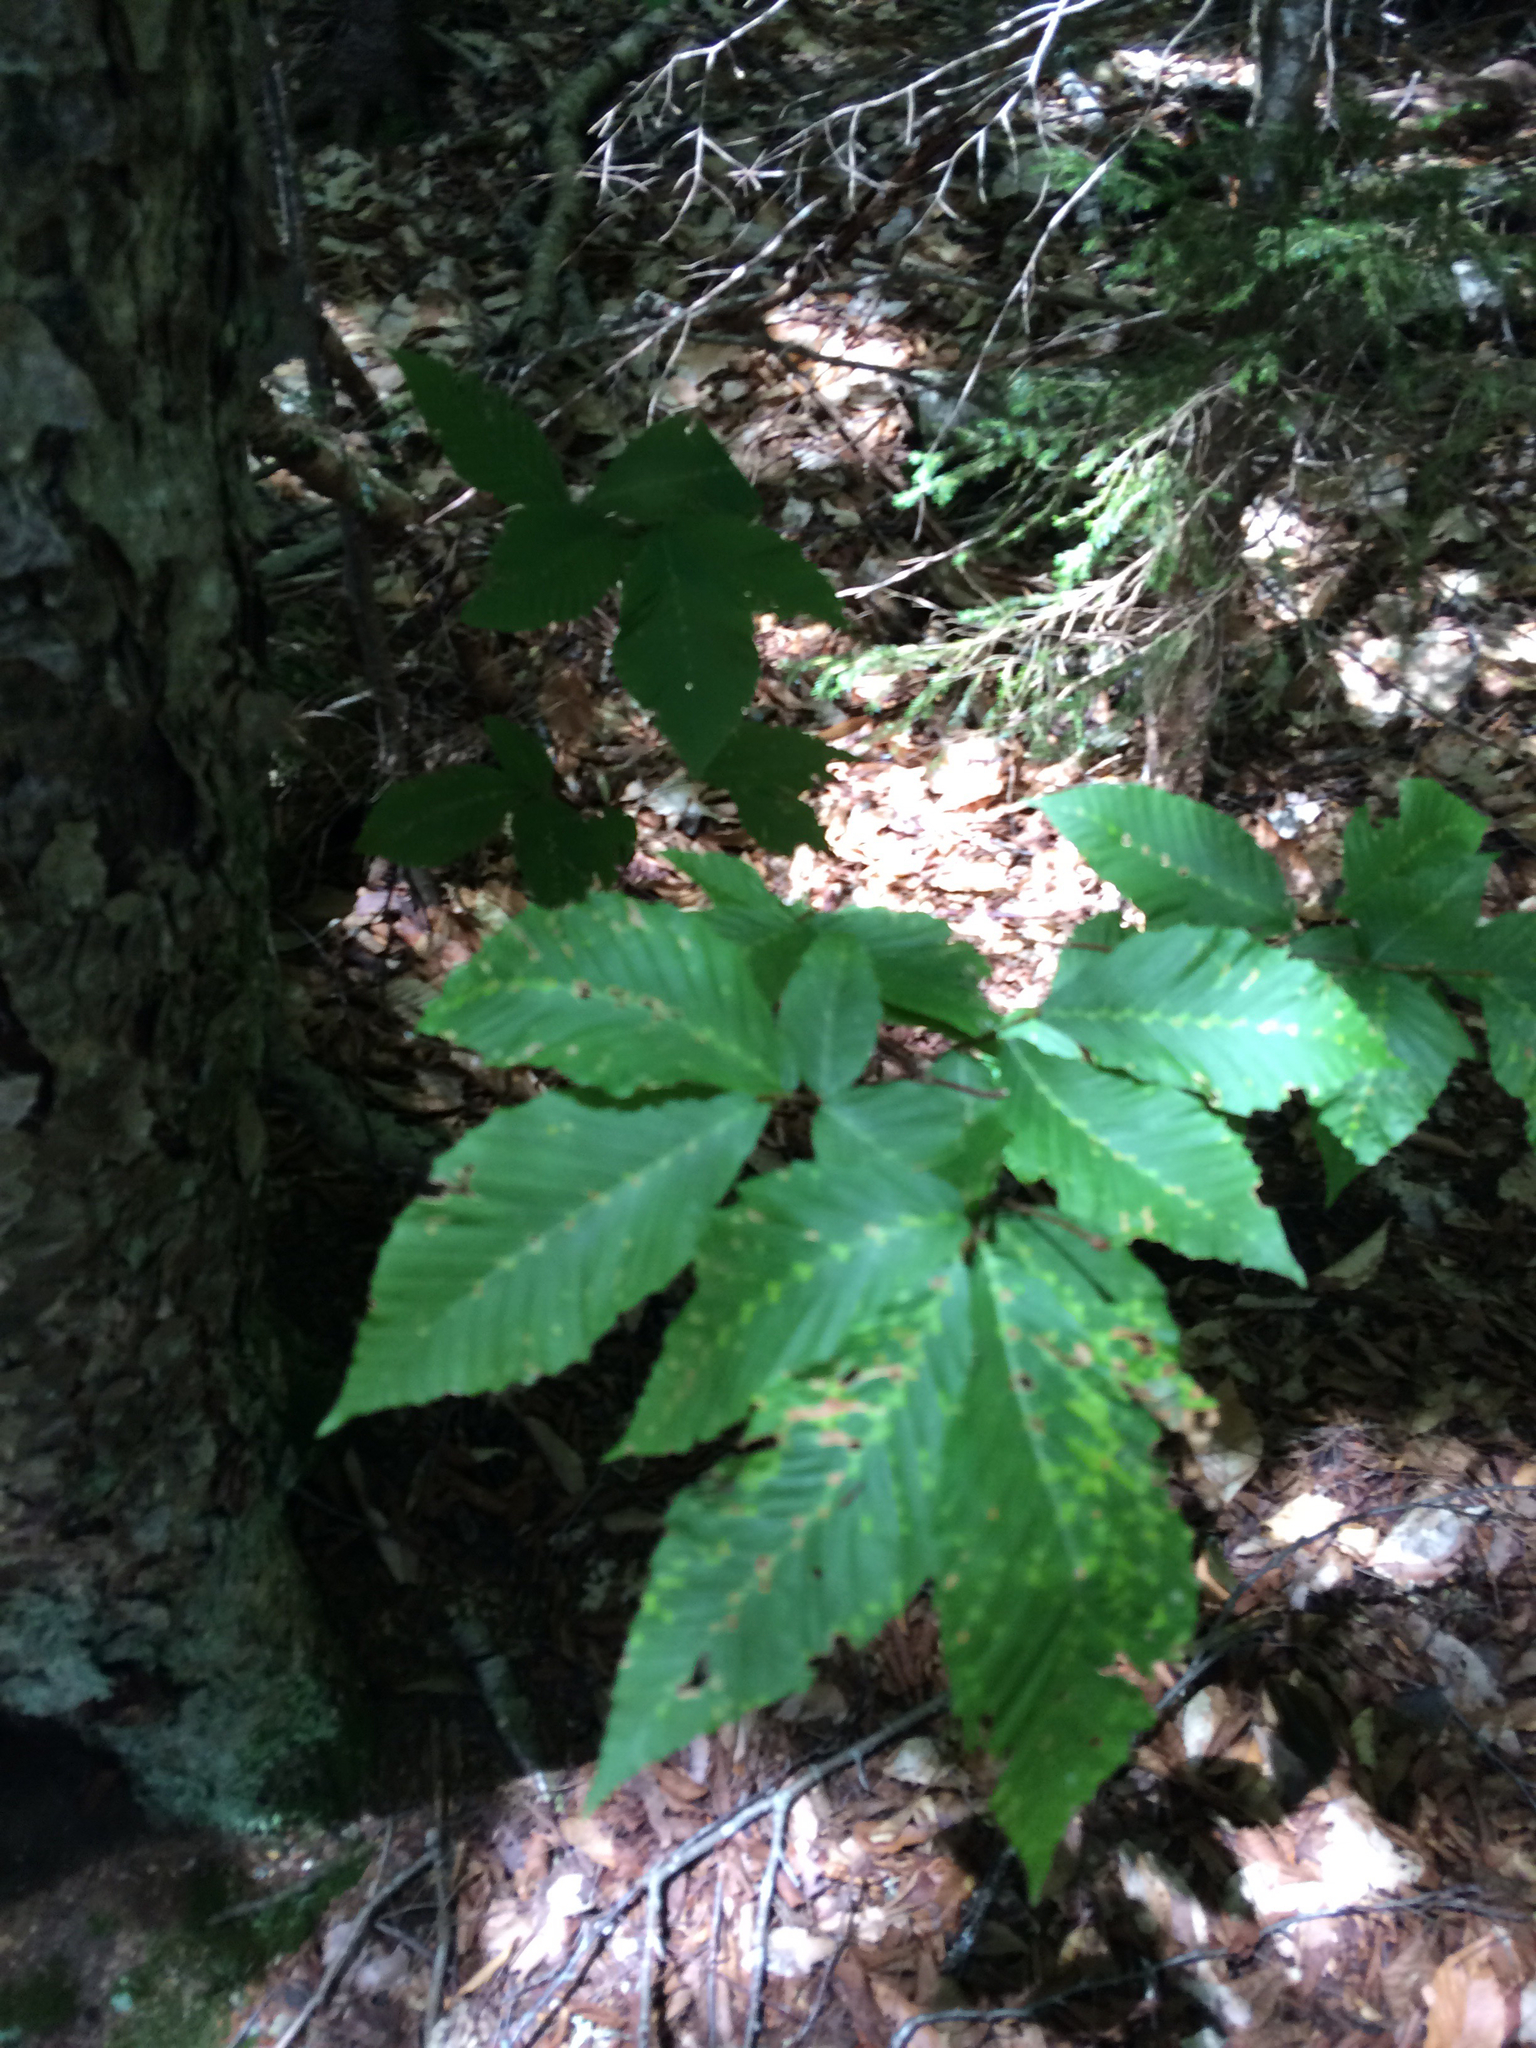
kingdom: Plantae
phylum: Tracheophyta
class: Magnoliopsida
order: Fagales
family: Fagaceae
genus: Fagus
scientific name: Fagus grandifolia
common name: American beech
